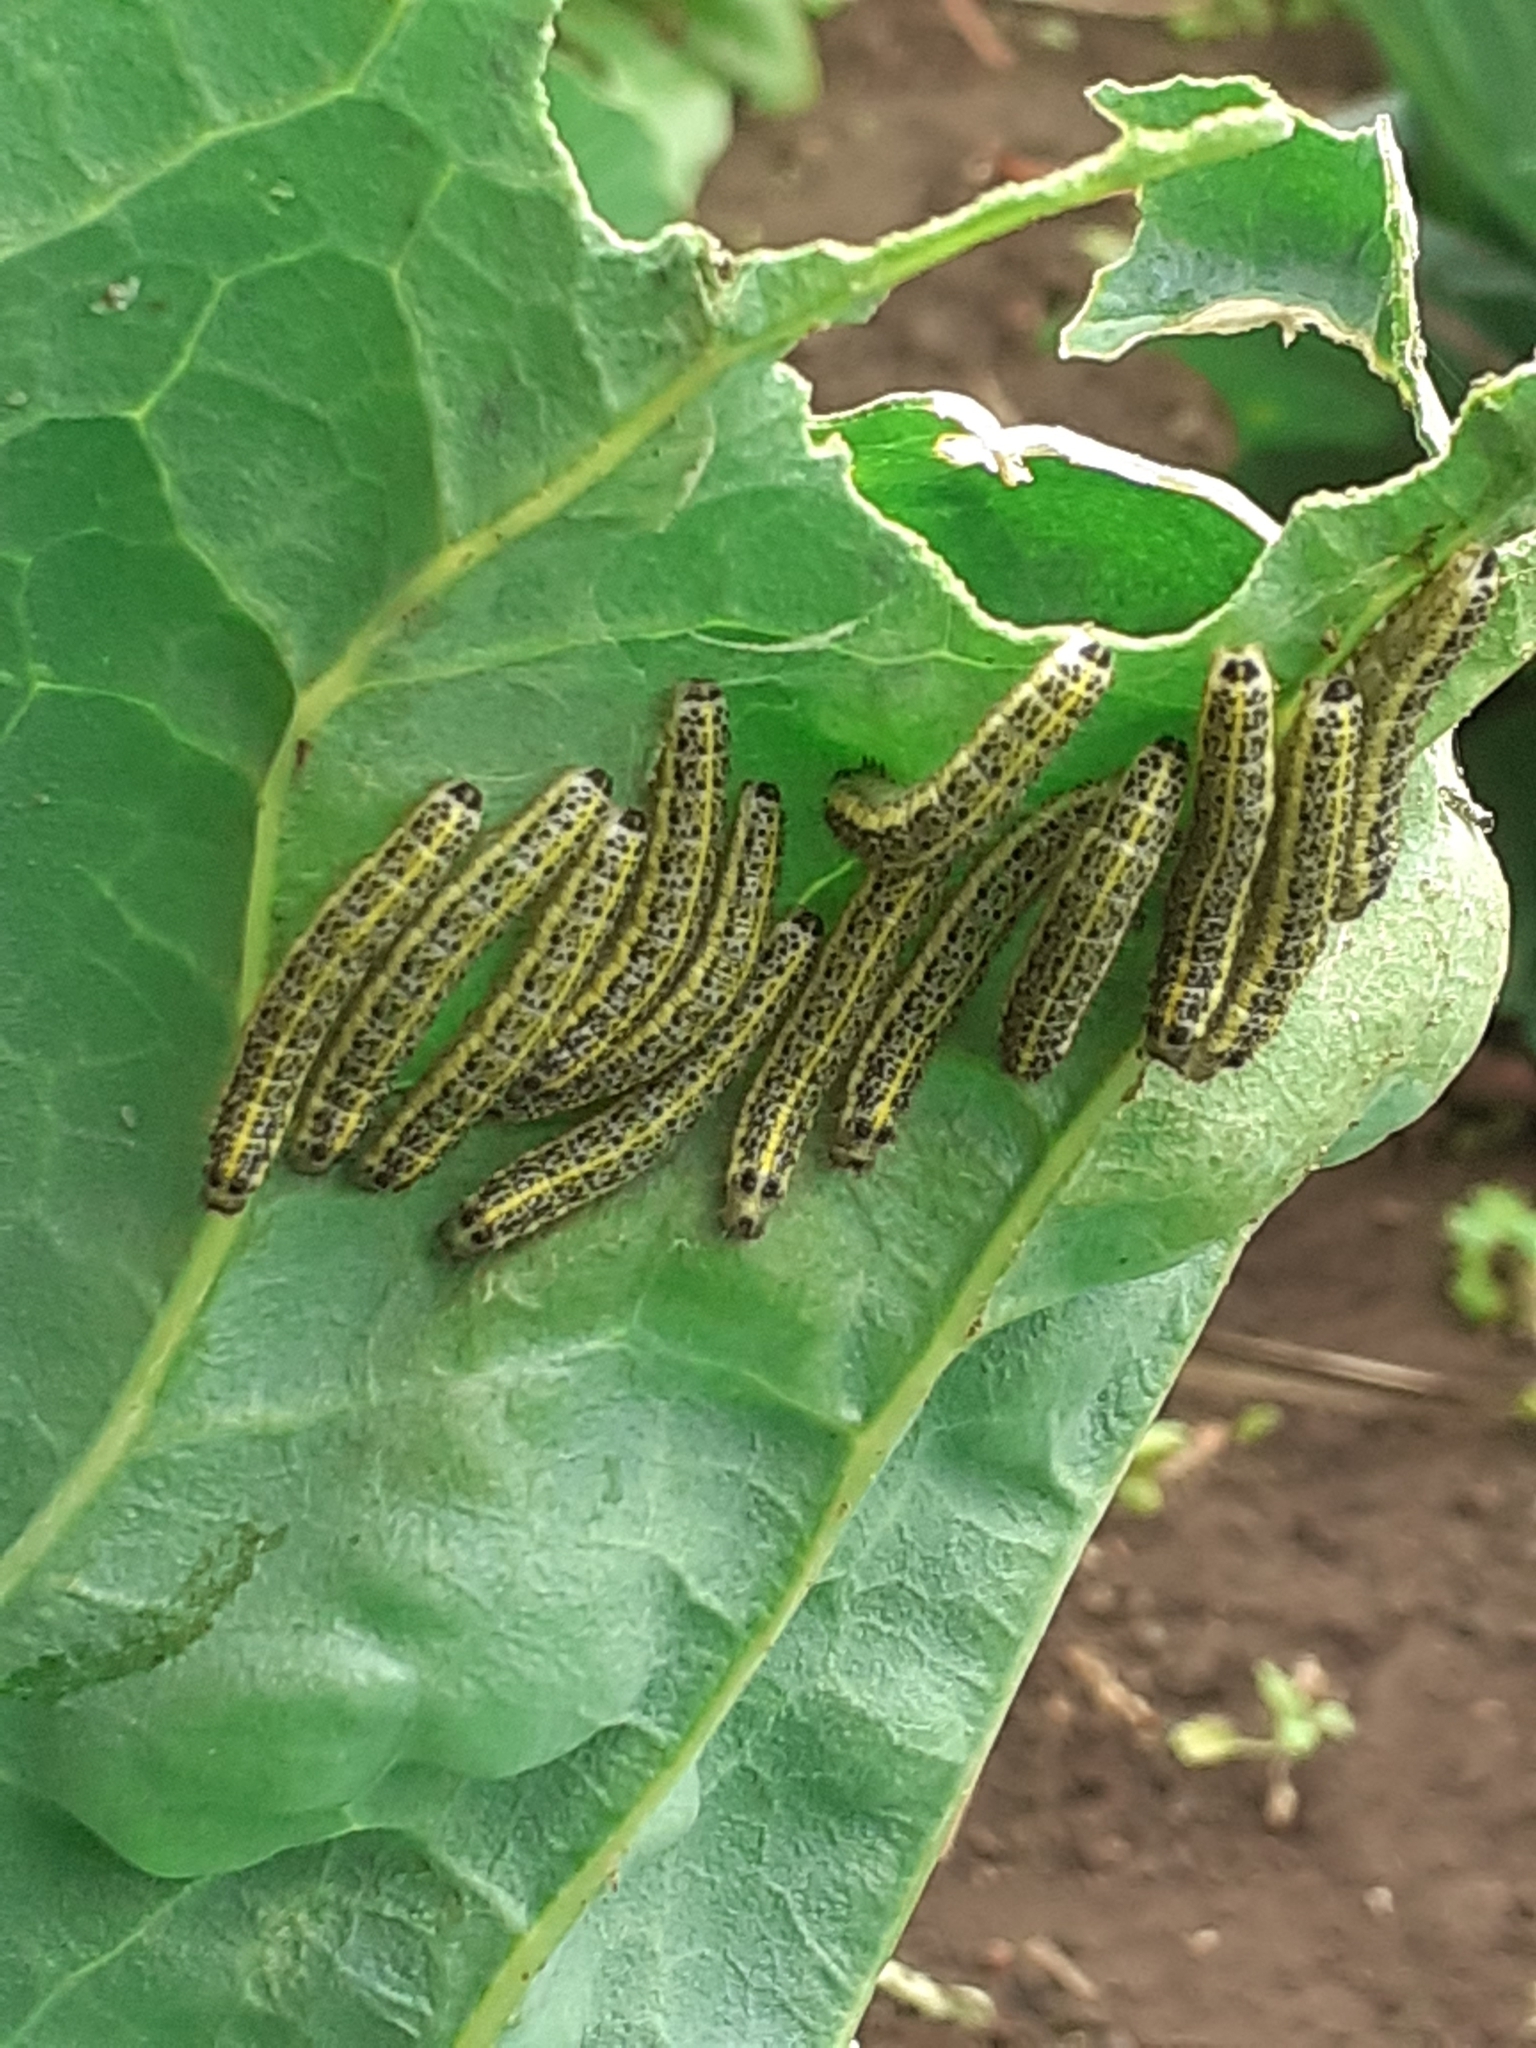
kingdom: Animalia
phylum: Arthropoda
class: Insecta
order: Lepidoptera
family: Pieridae
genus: Pieris
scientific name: Pieris cheiranthi
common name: Canary islands large white
